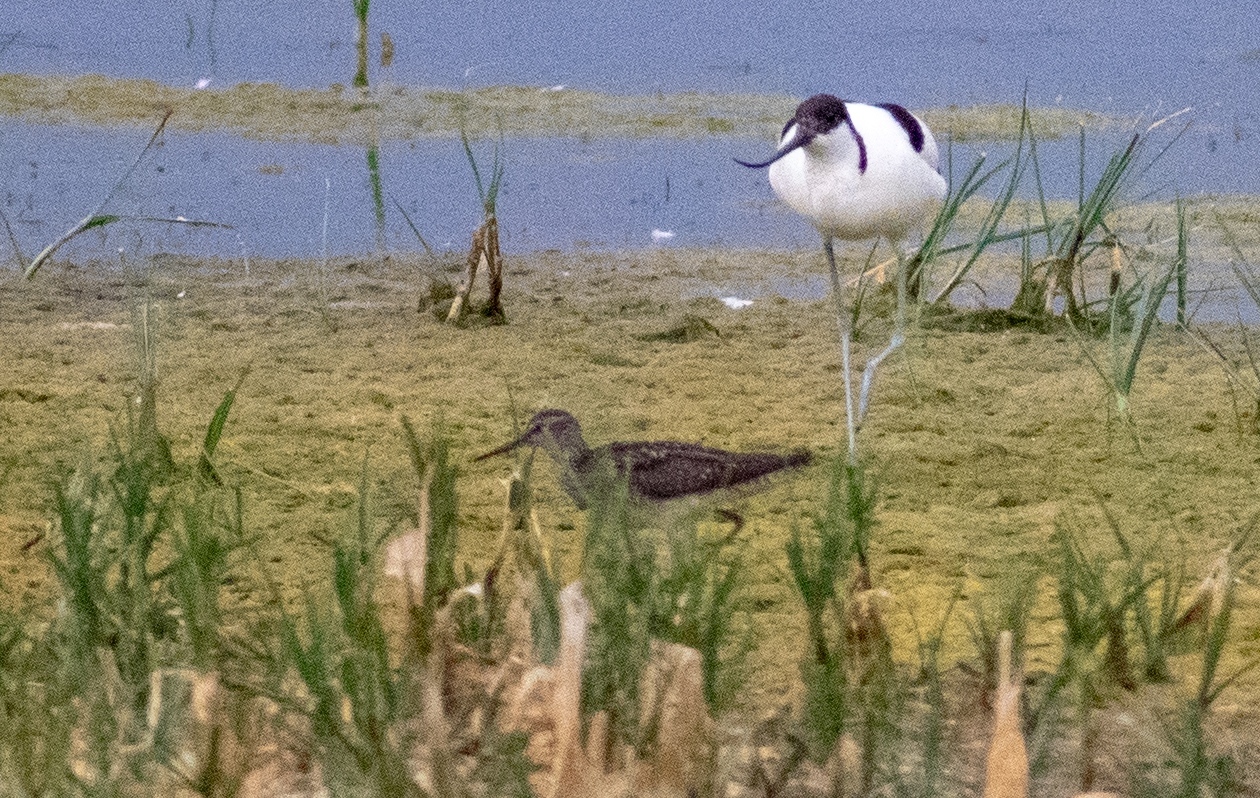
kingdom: Animalia
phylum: Chordata
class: Aves
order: Charadriiformes
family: Scolopacidae
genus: Tringa
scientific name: Tringa glareola
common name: Wood sandpiper
